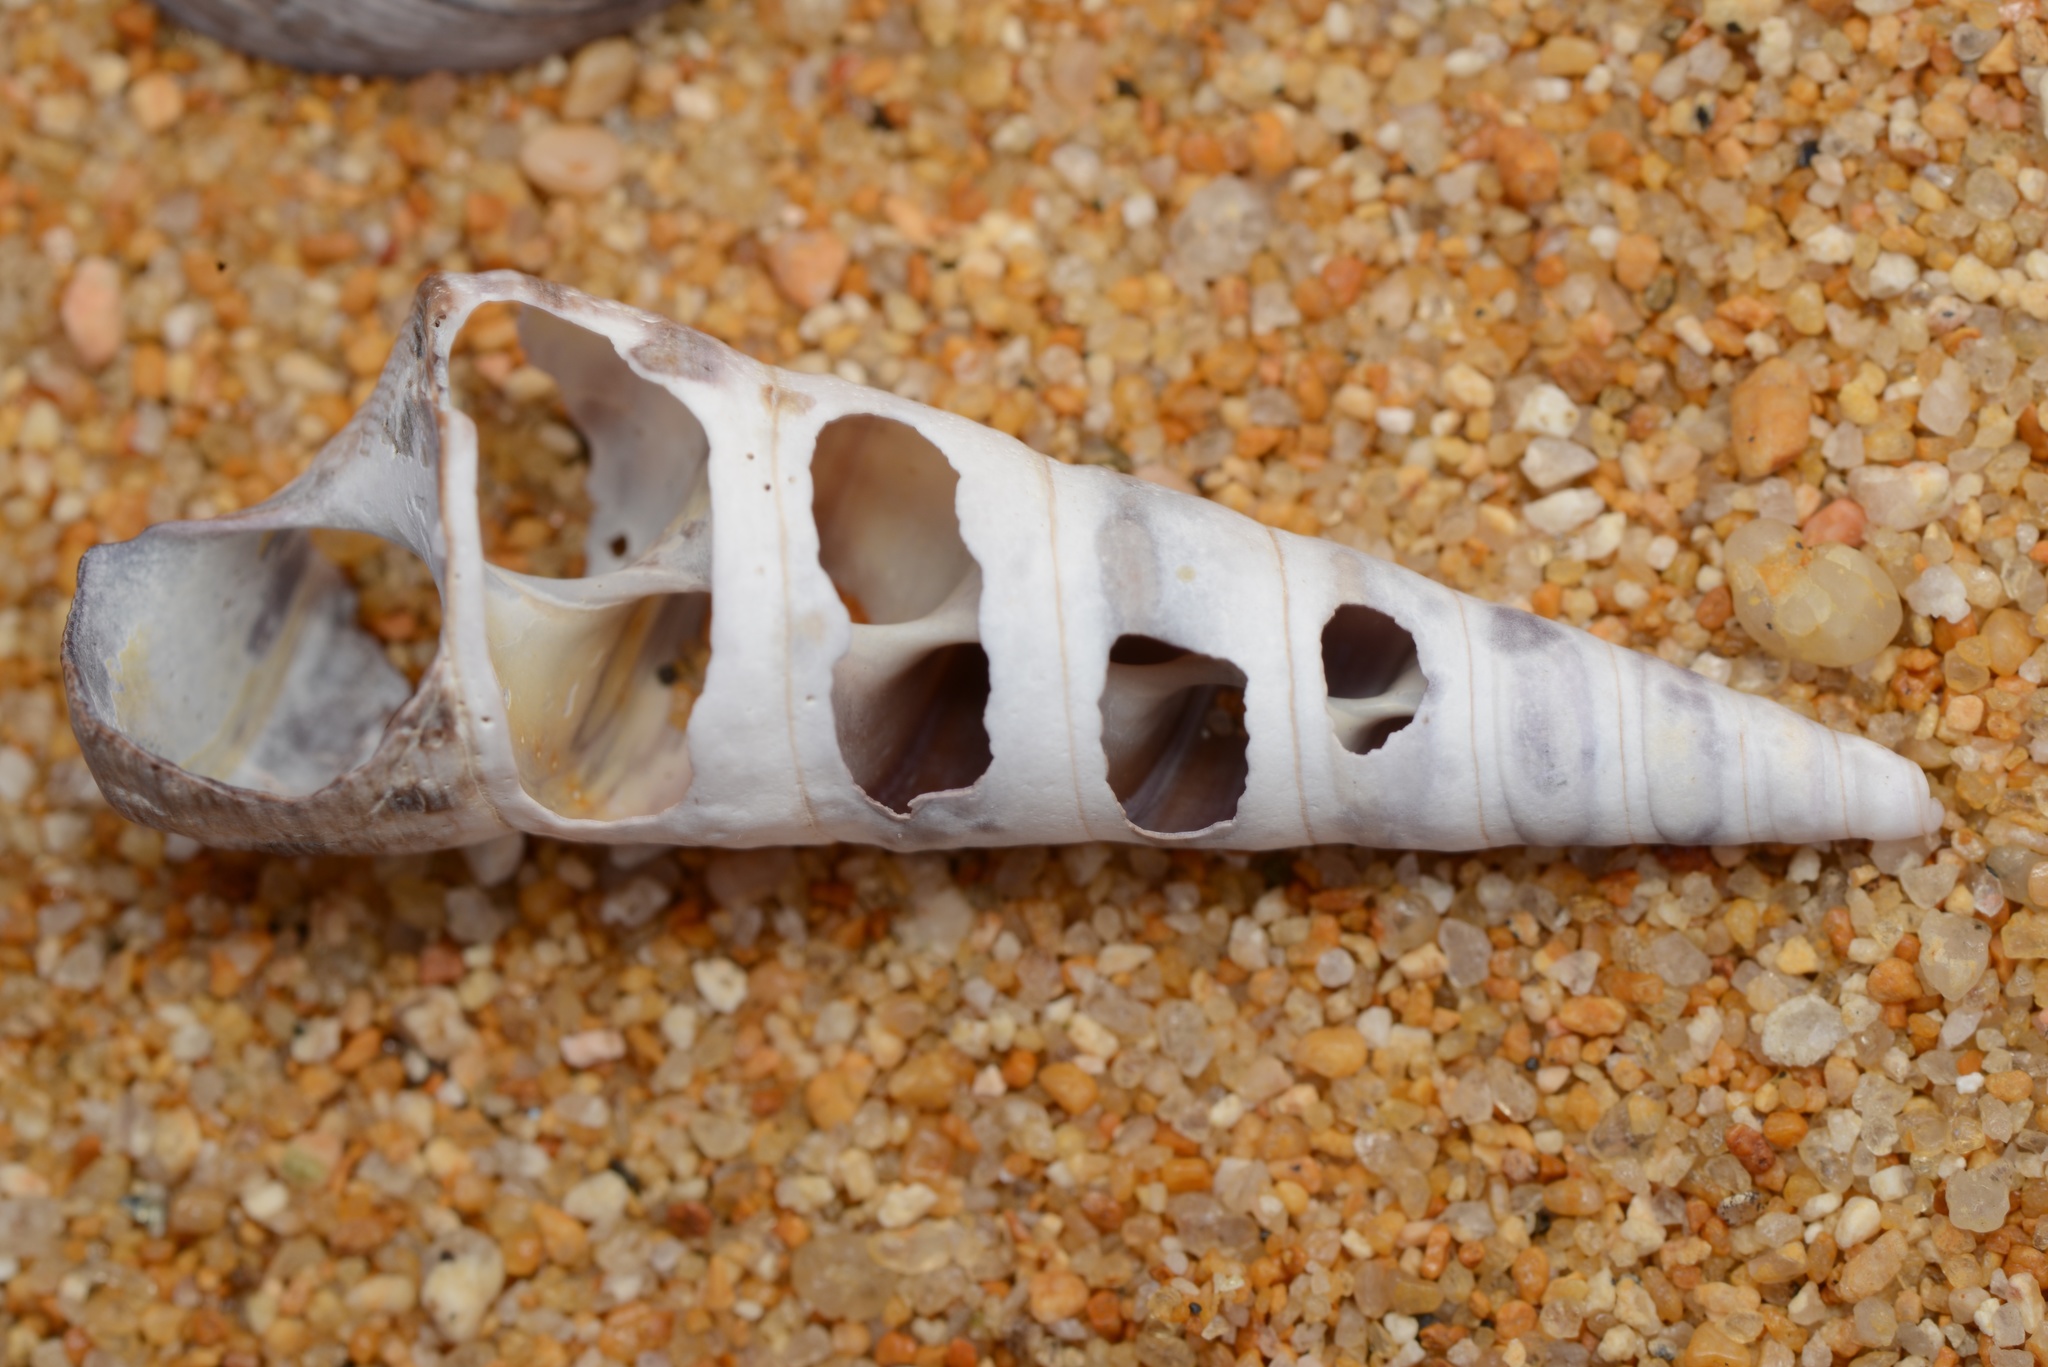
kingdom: Animalia
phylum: Mollusca
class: Gastropoda
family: Turritellidae
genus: Maoricolpus
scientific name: Maoricolpus roseus
